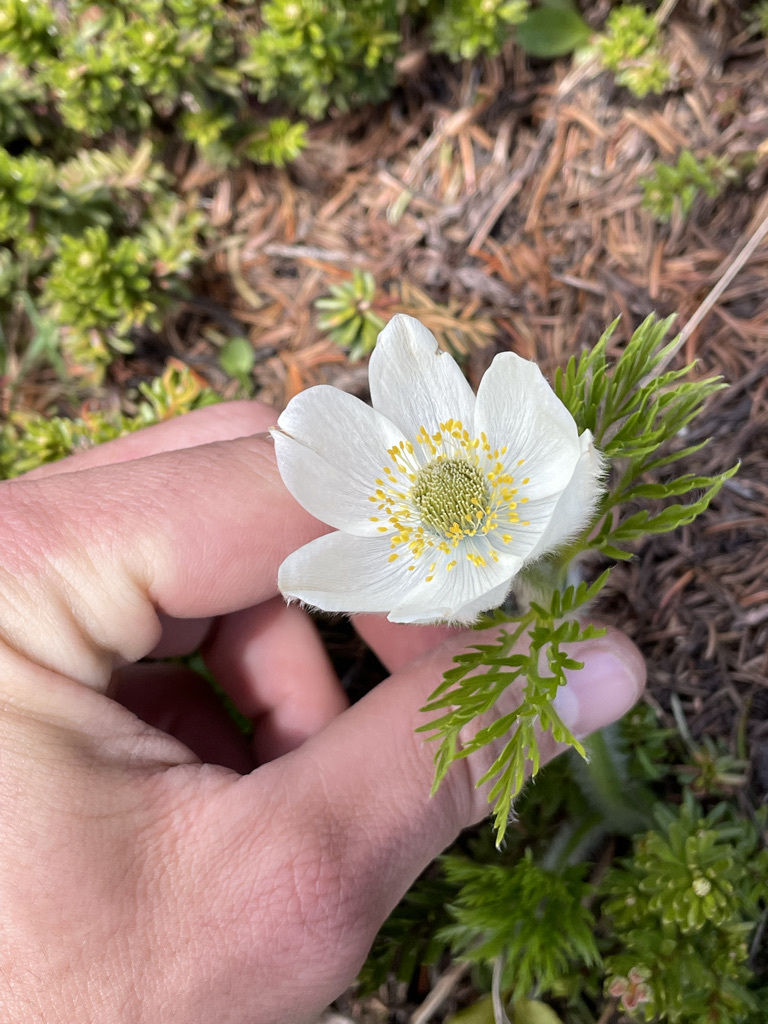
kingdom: Plantae
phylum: Tracheophyta
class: Magnoliopsida
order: Ranunculales
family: Ranunculaceae
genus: Pulsatilla
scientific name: Pulsatilla occidentalis
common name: Mountain pasqueflower
